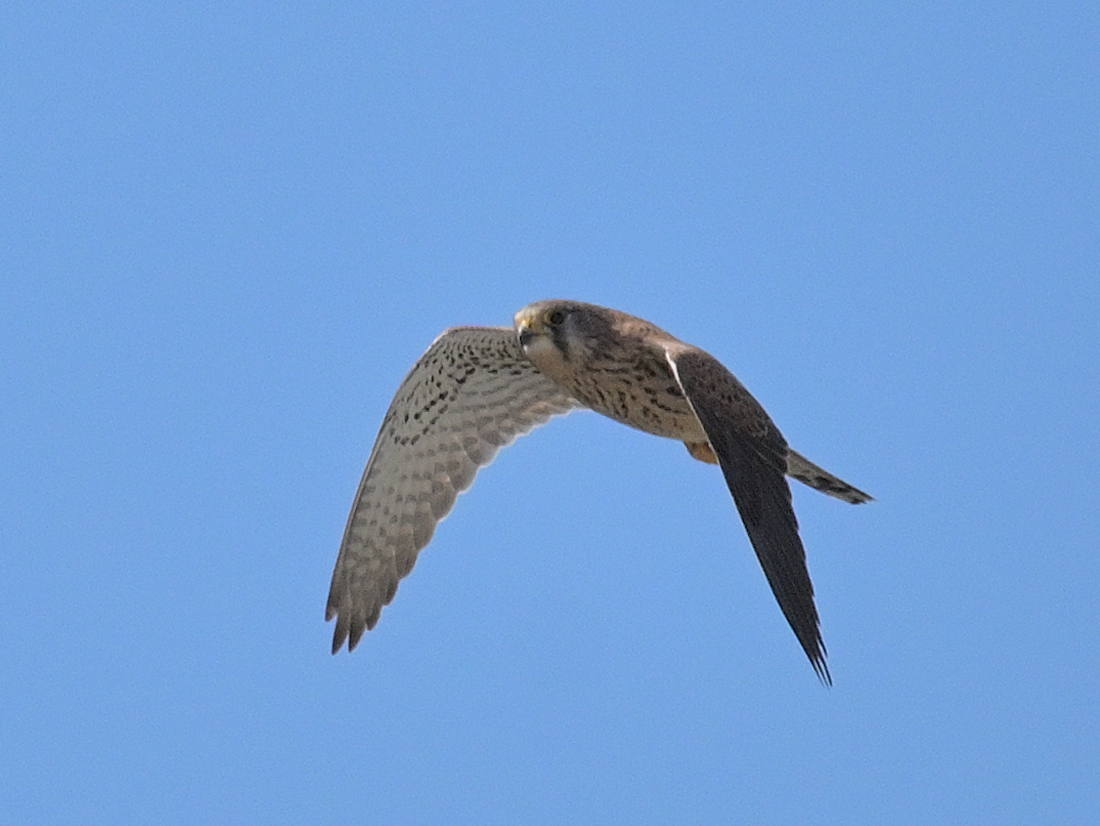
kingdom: Animalia
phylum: Chordata
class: Aves
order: Falconiformes
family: Falconidae
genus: Falco
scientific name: Falco tinnunculus
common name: Common kestrel
